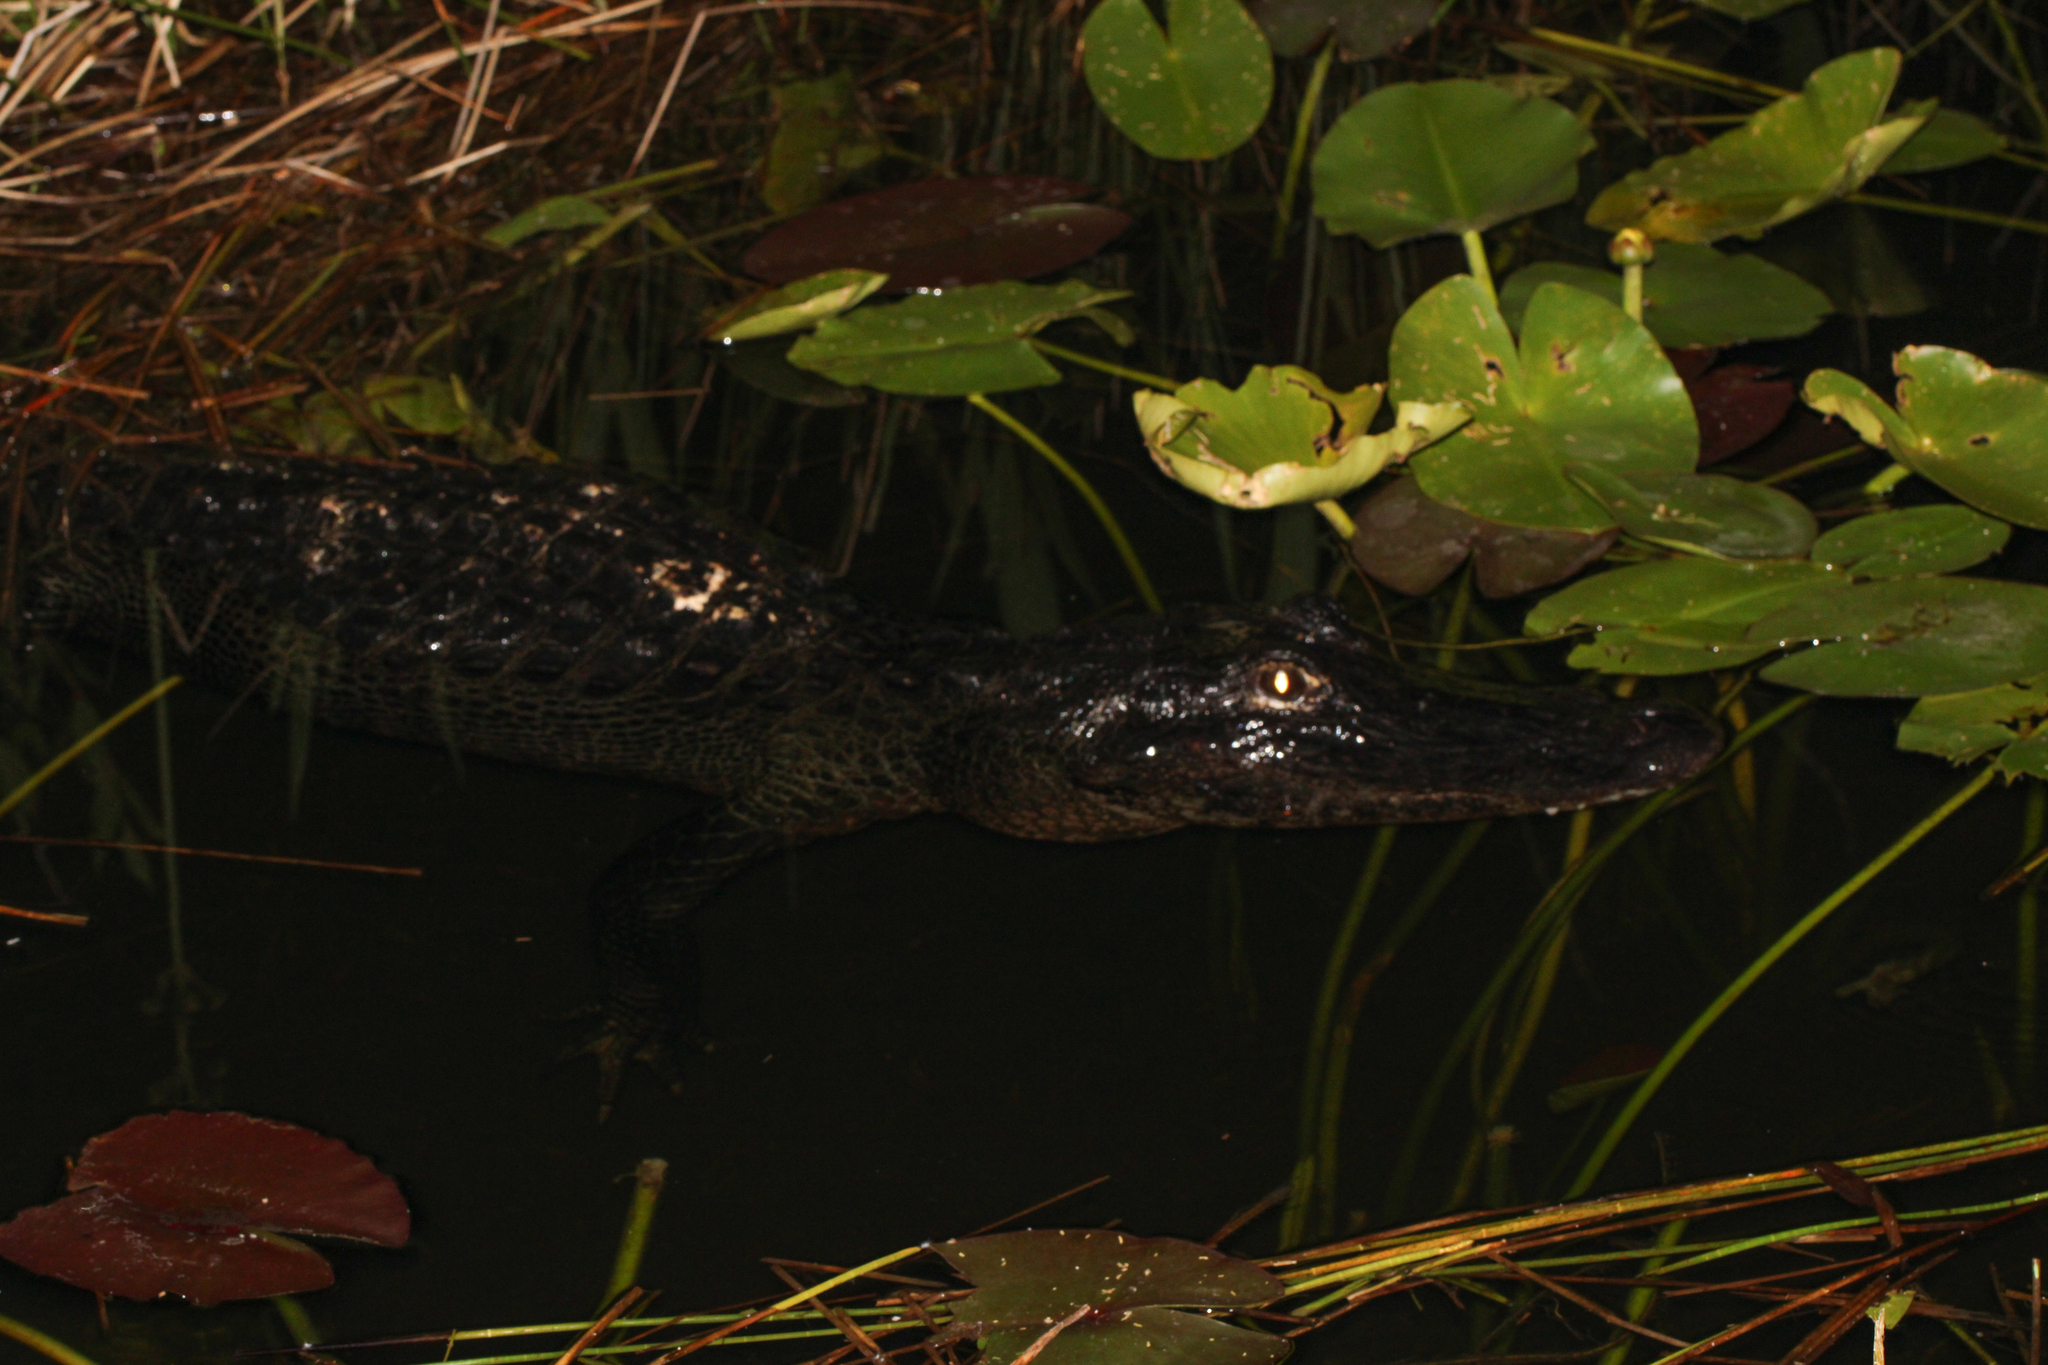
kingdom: Animalia
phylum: Chordata
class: Crocodylia
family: Alligatoridae
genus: Alligator
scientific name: Alligator mississippiensis
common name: American alligator
